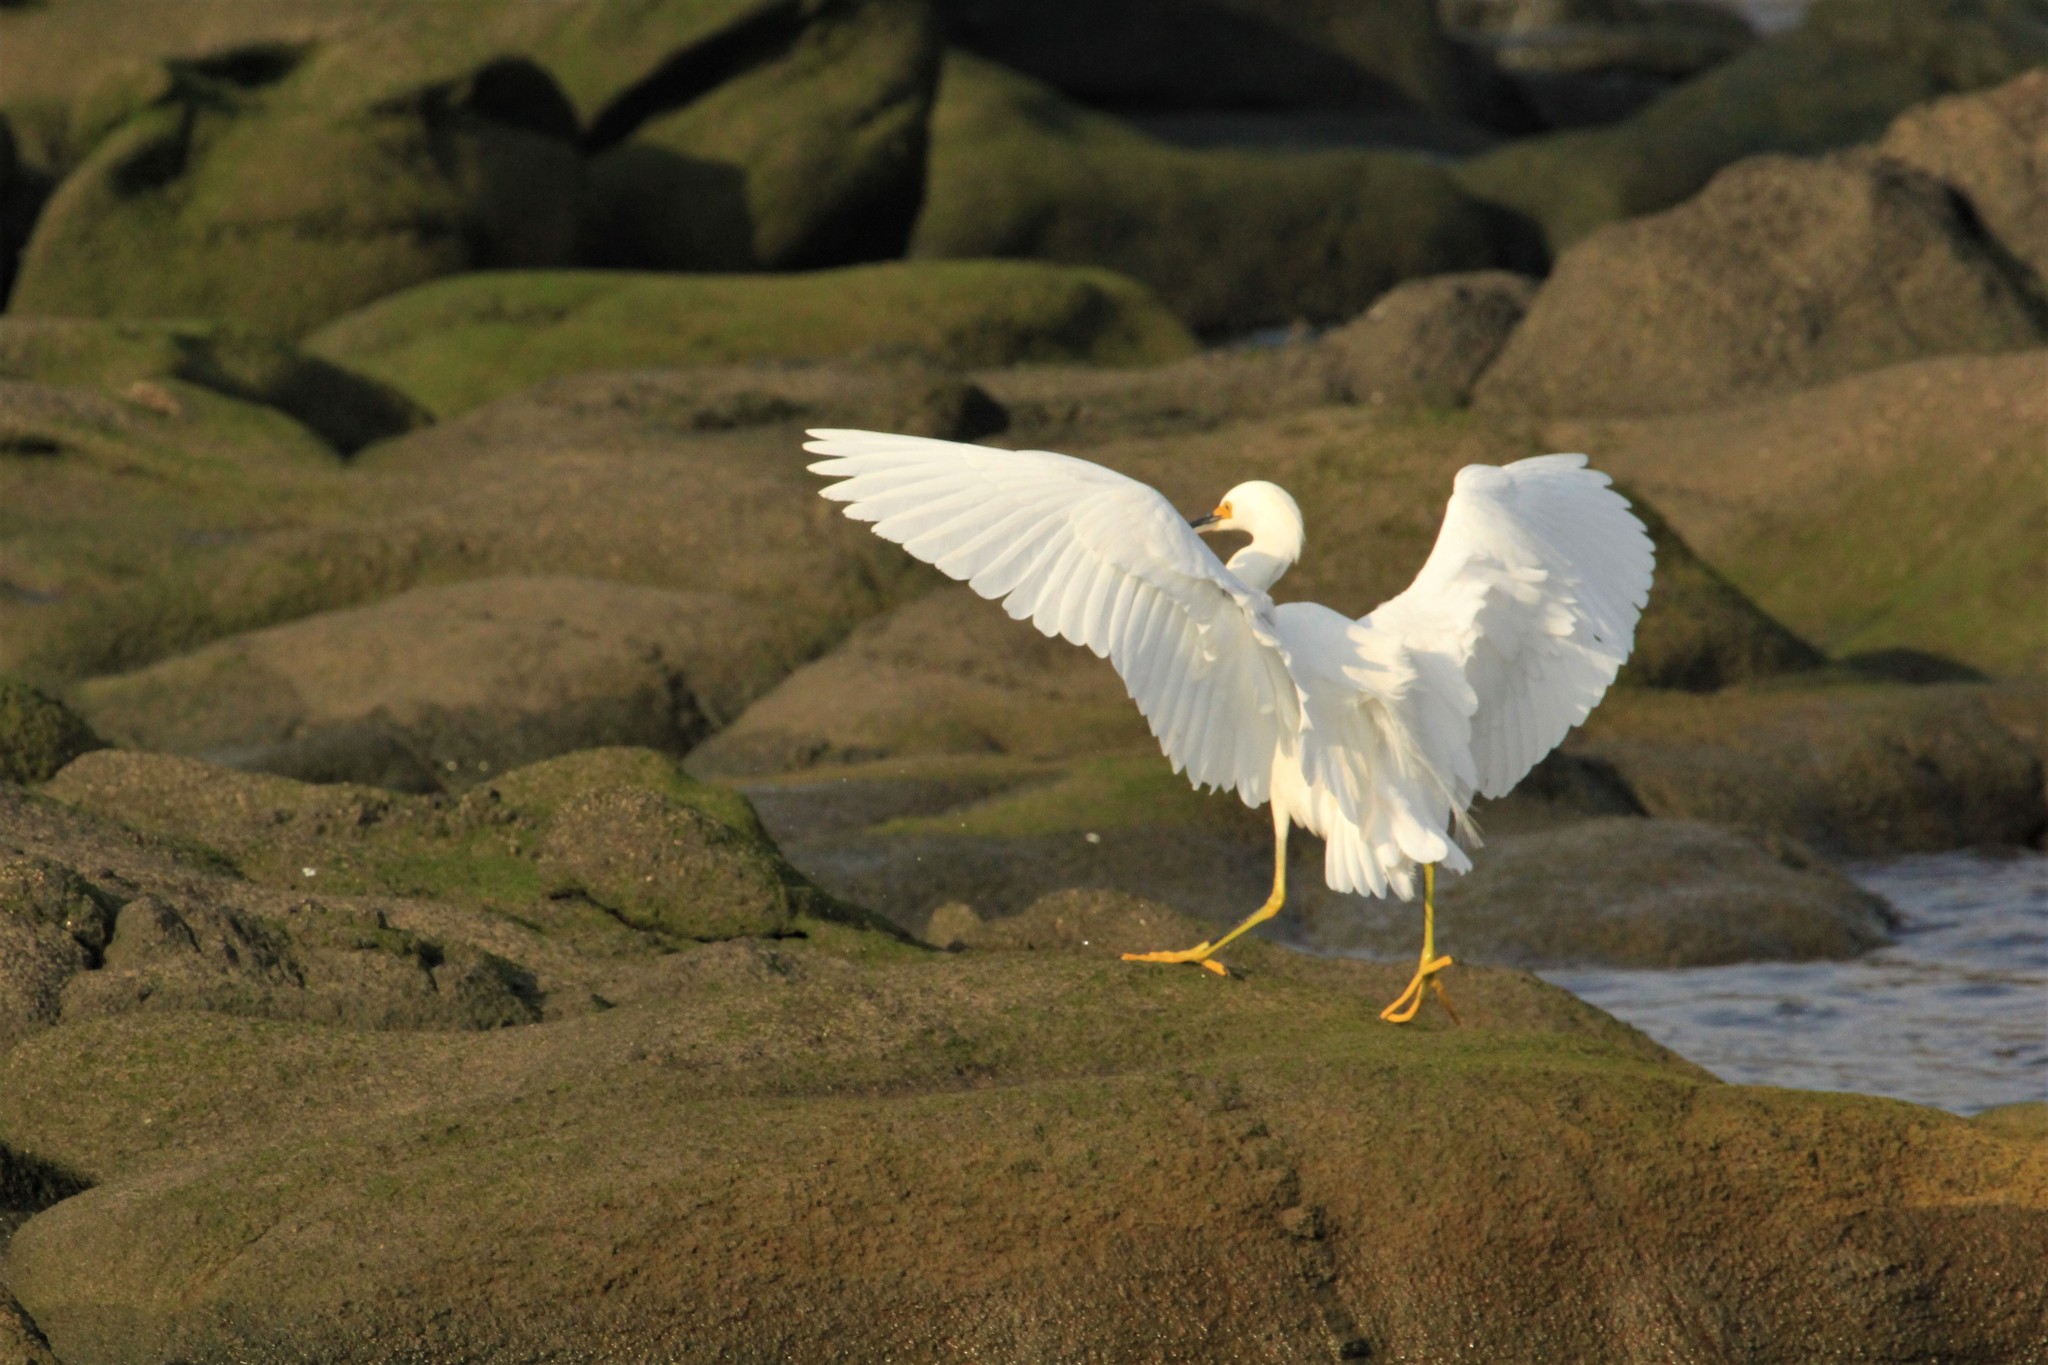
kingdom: Animalia
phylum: Chordata
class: Aves
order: Pelecaniformes
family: Ardeidae
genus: Egretta
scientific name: Egretta thula
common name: Snowy egret
